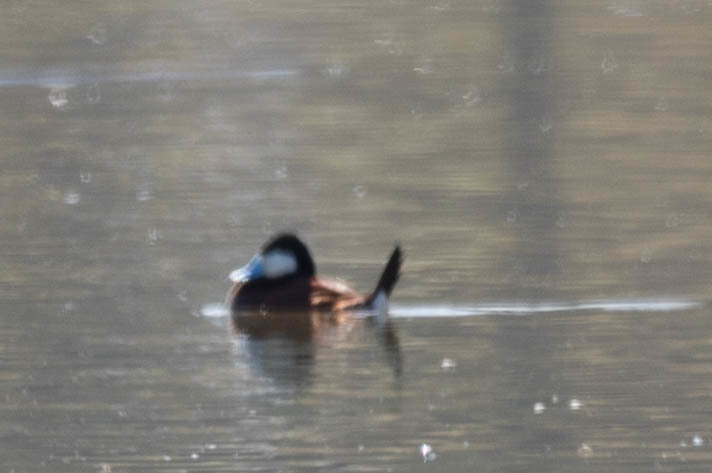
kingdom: Animalia
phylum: Chordata
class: Aves
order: Anseriformes
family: Anatidae
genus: Oxyura
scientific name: Oxyura jamaicensis
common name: Ruddy duck
